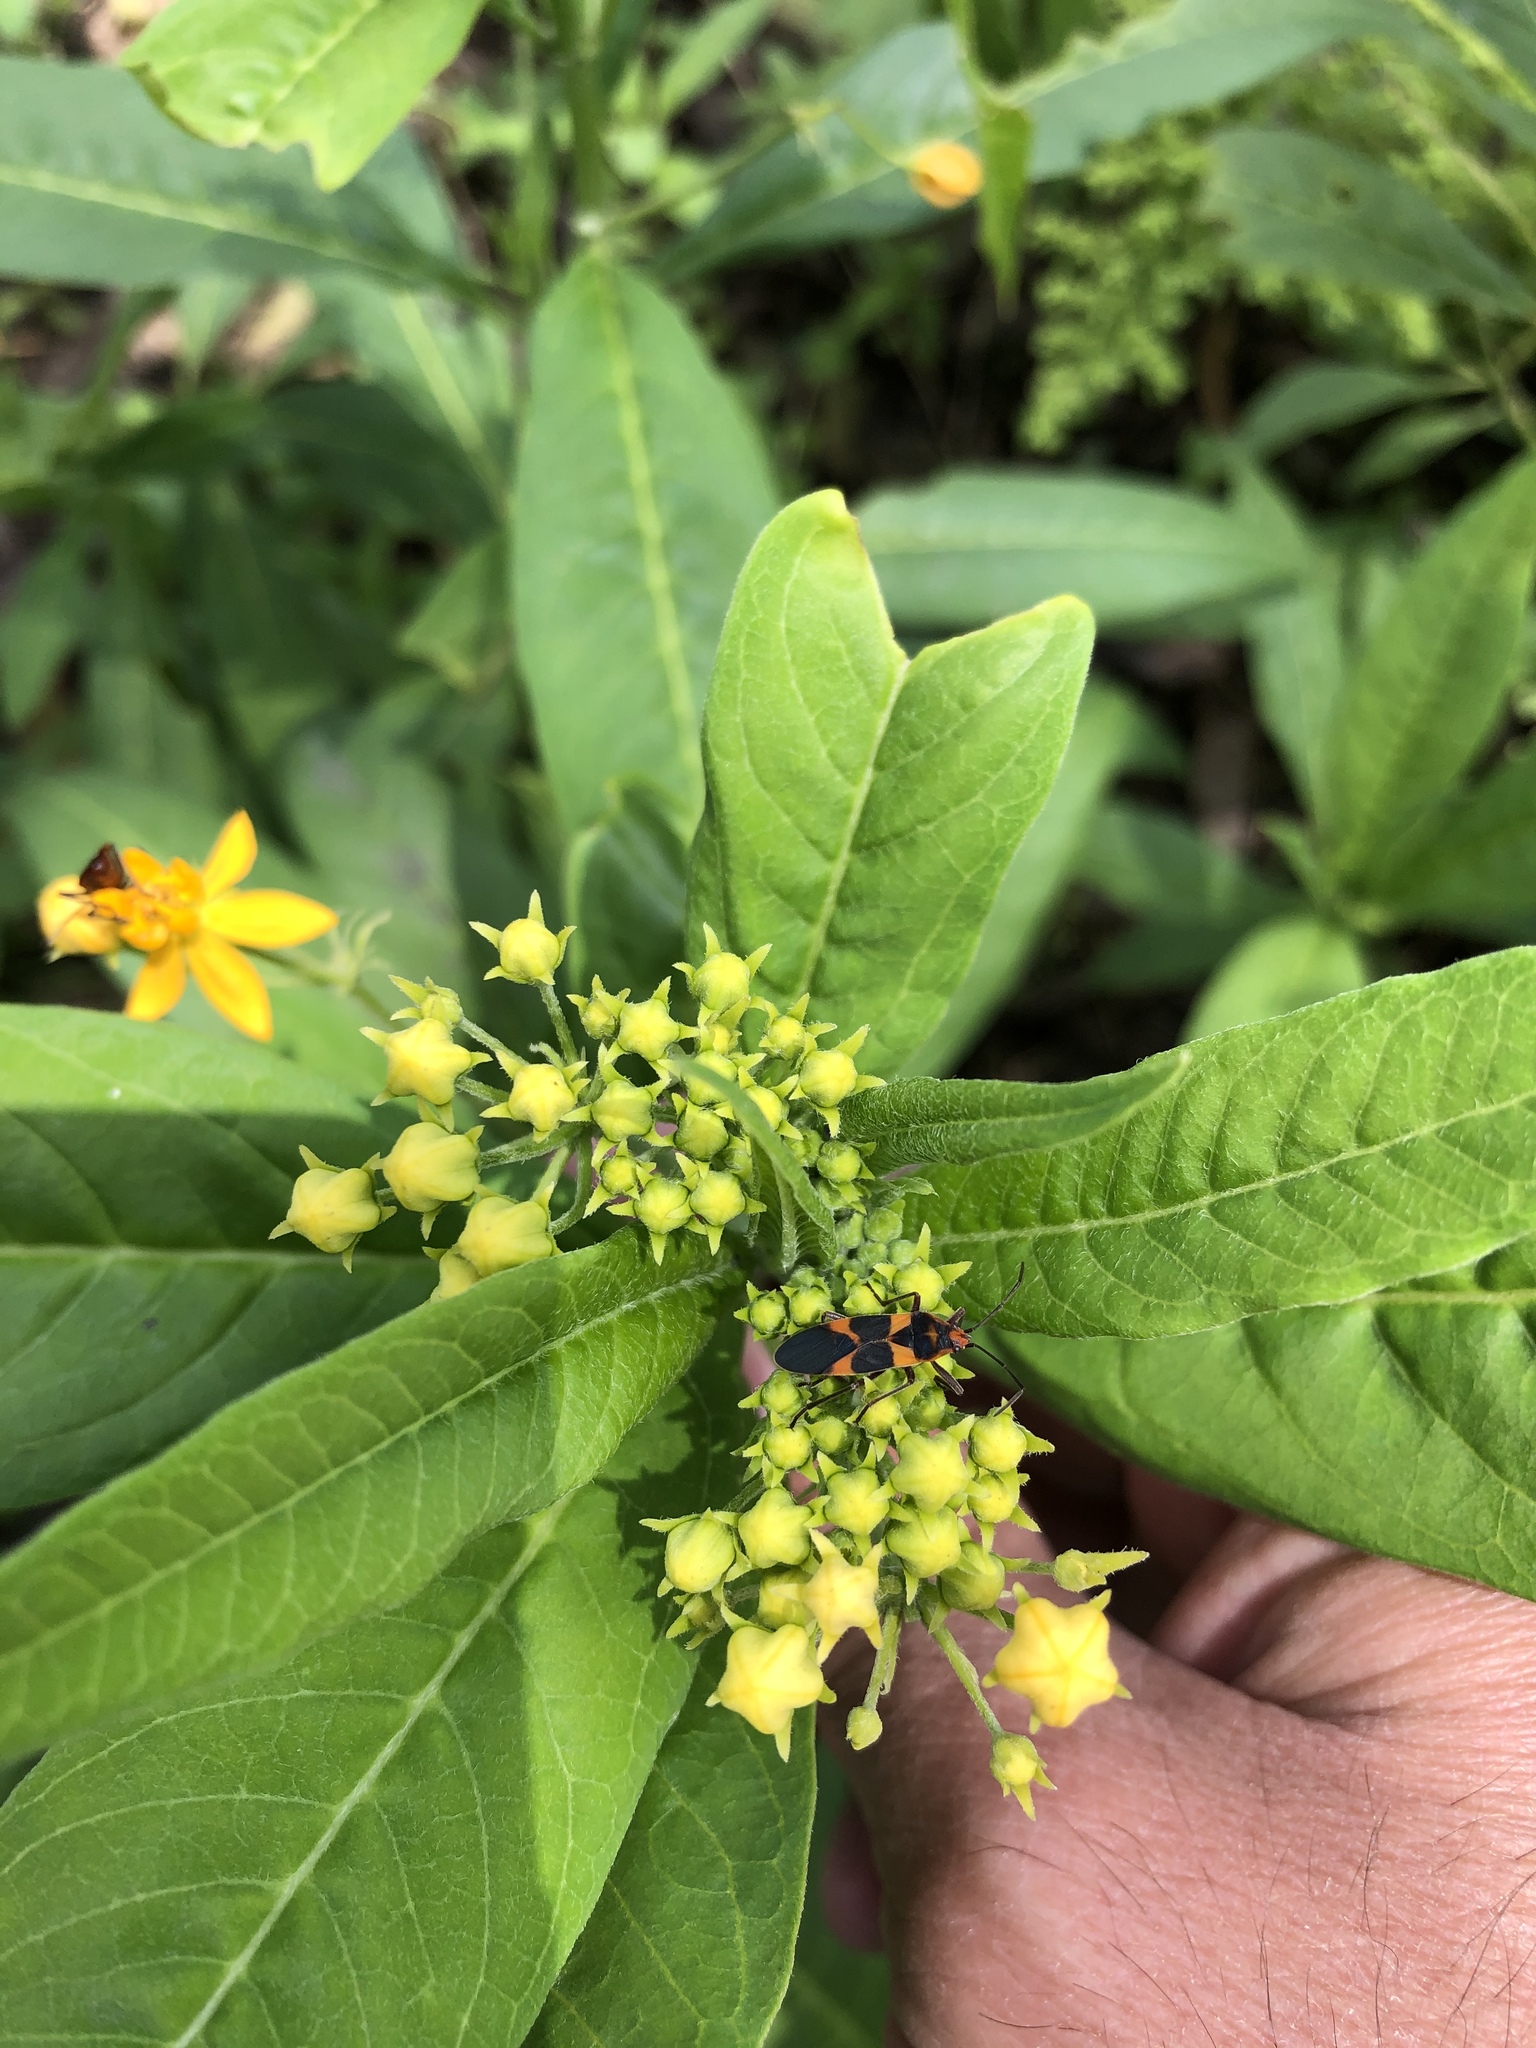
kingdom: Animalia
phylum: Arthropoda
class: Insecta
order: Hemiptera
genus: Erythrischius
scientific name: Erythrischius
